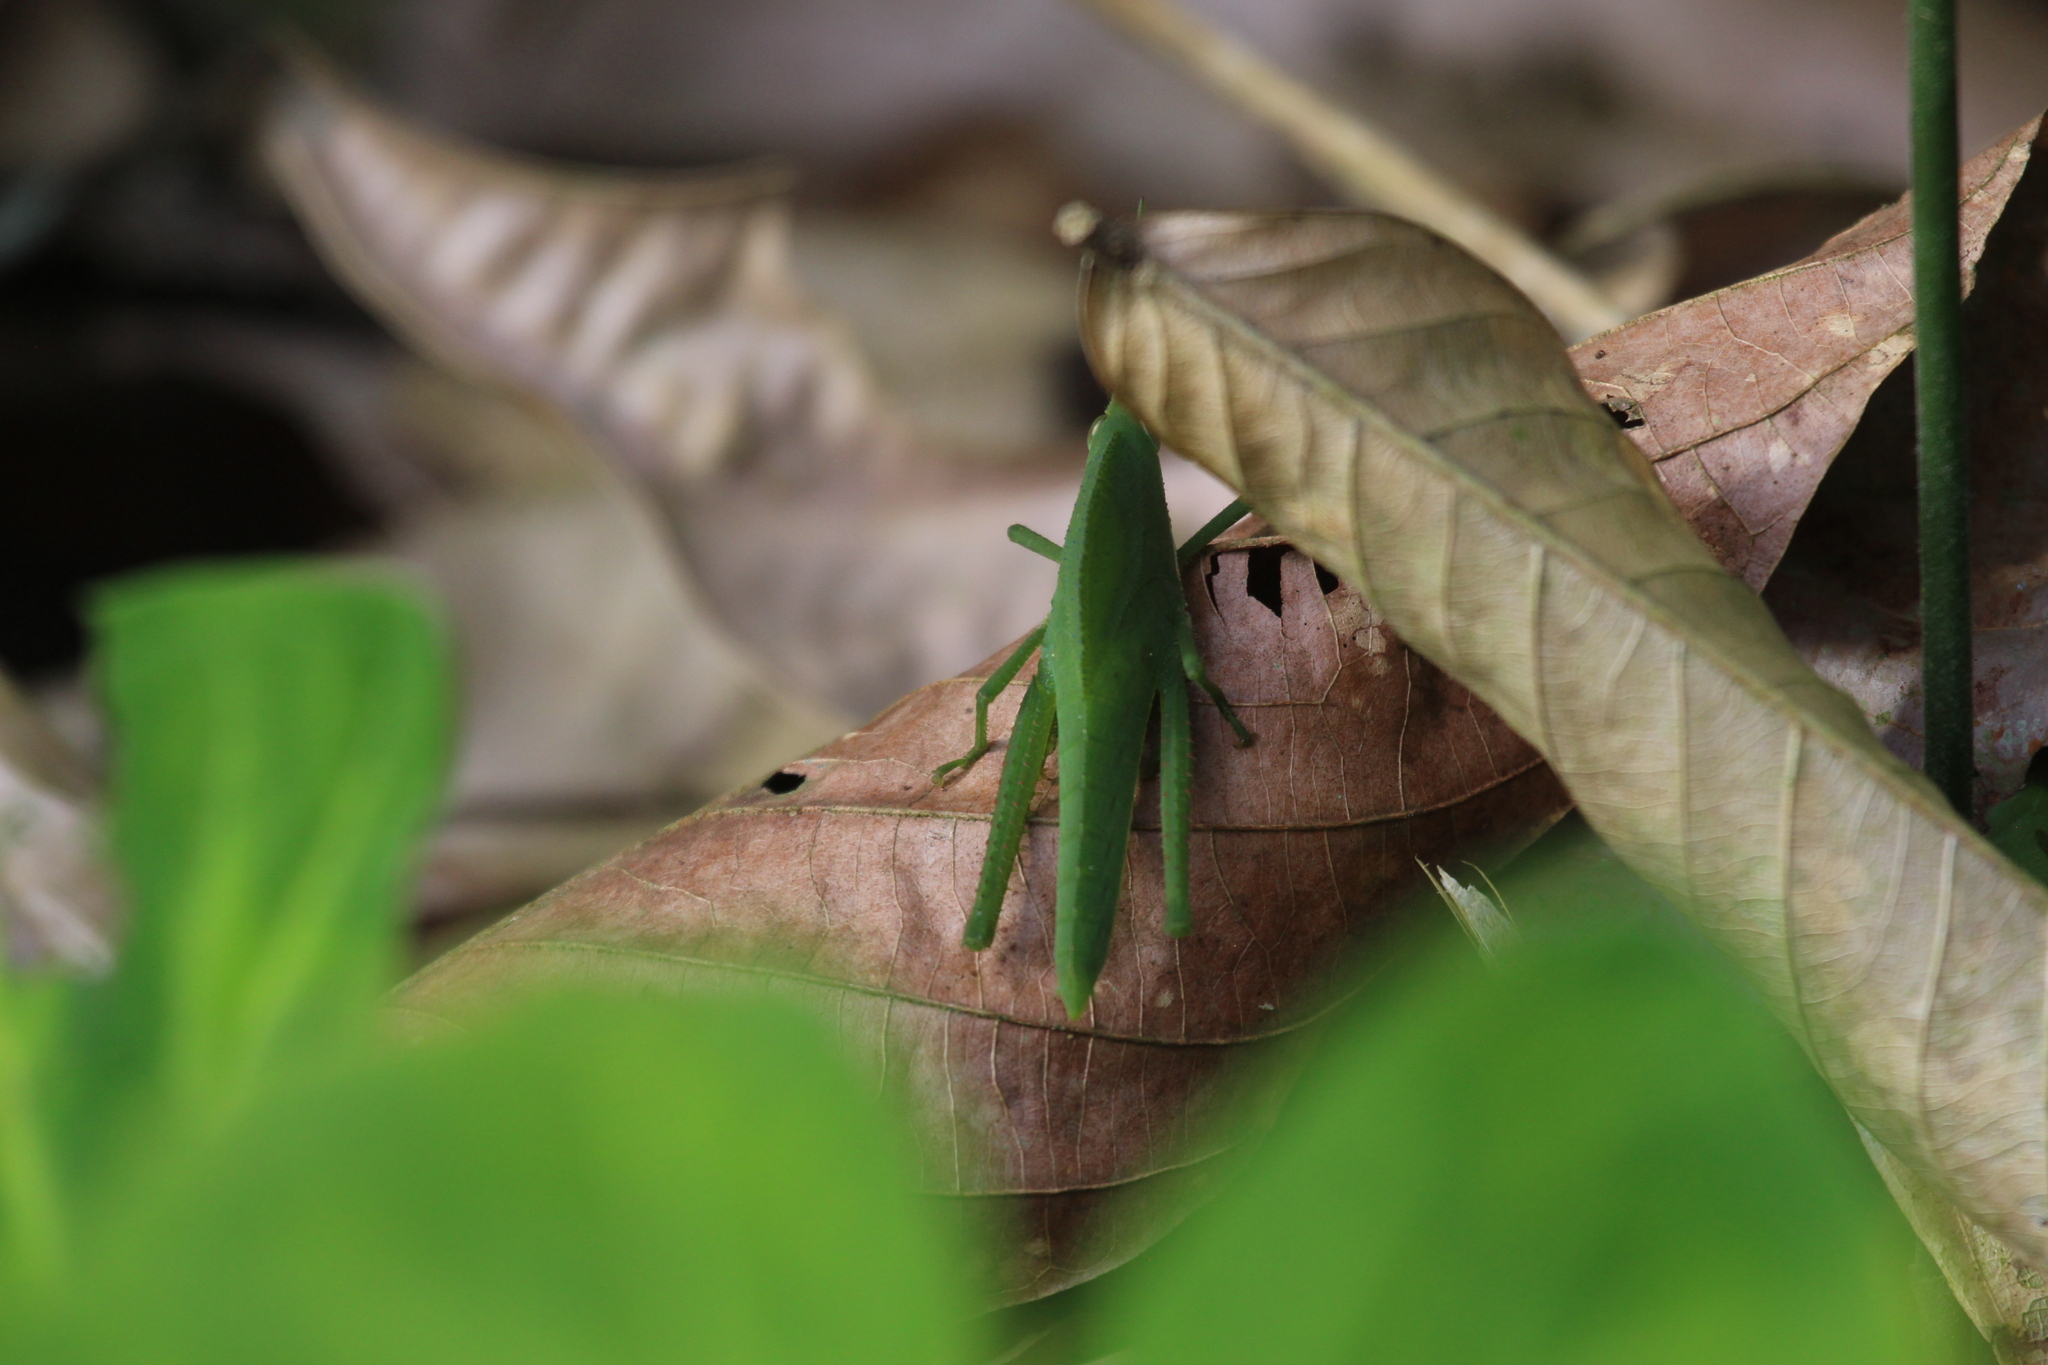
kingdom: Animalia
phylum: Arthropoda
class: Insecta
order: Orthoptera
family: Romaleidae
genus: Prionolopha
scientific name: Prionolopha serrata
